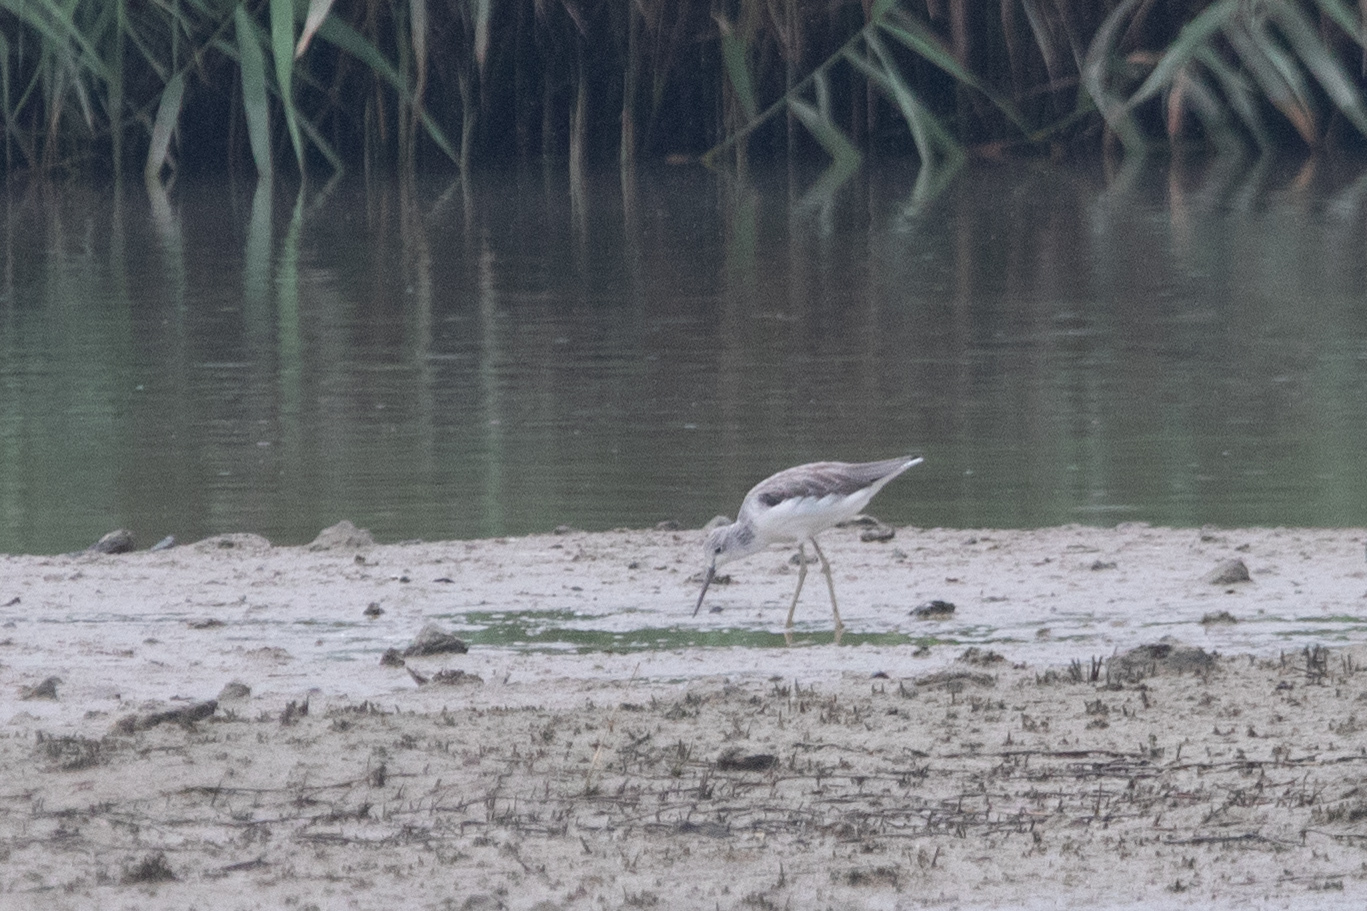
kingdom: Animalia
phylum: Chordata
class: Aves
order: Charadriiformes
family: Scolopacidae
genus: Tringa
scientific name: Tringa nebularia
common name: Common greenshank
